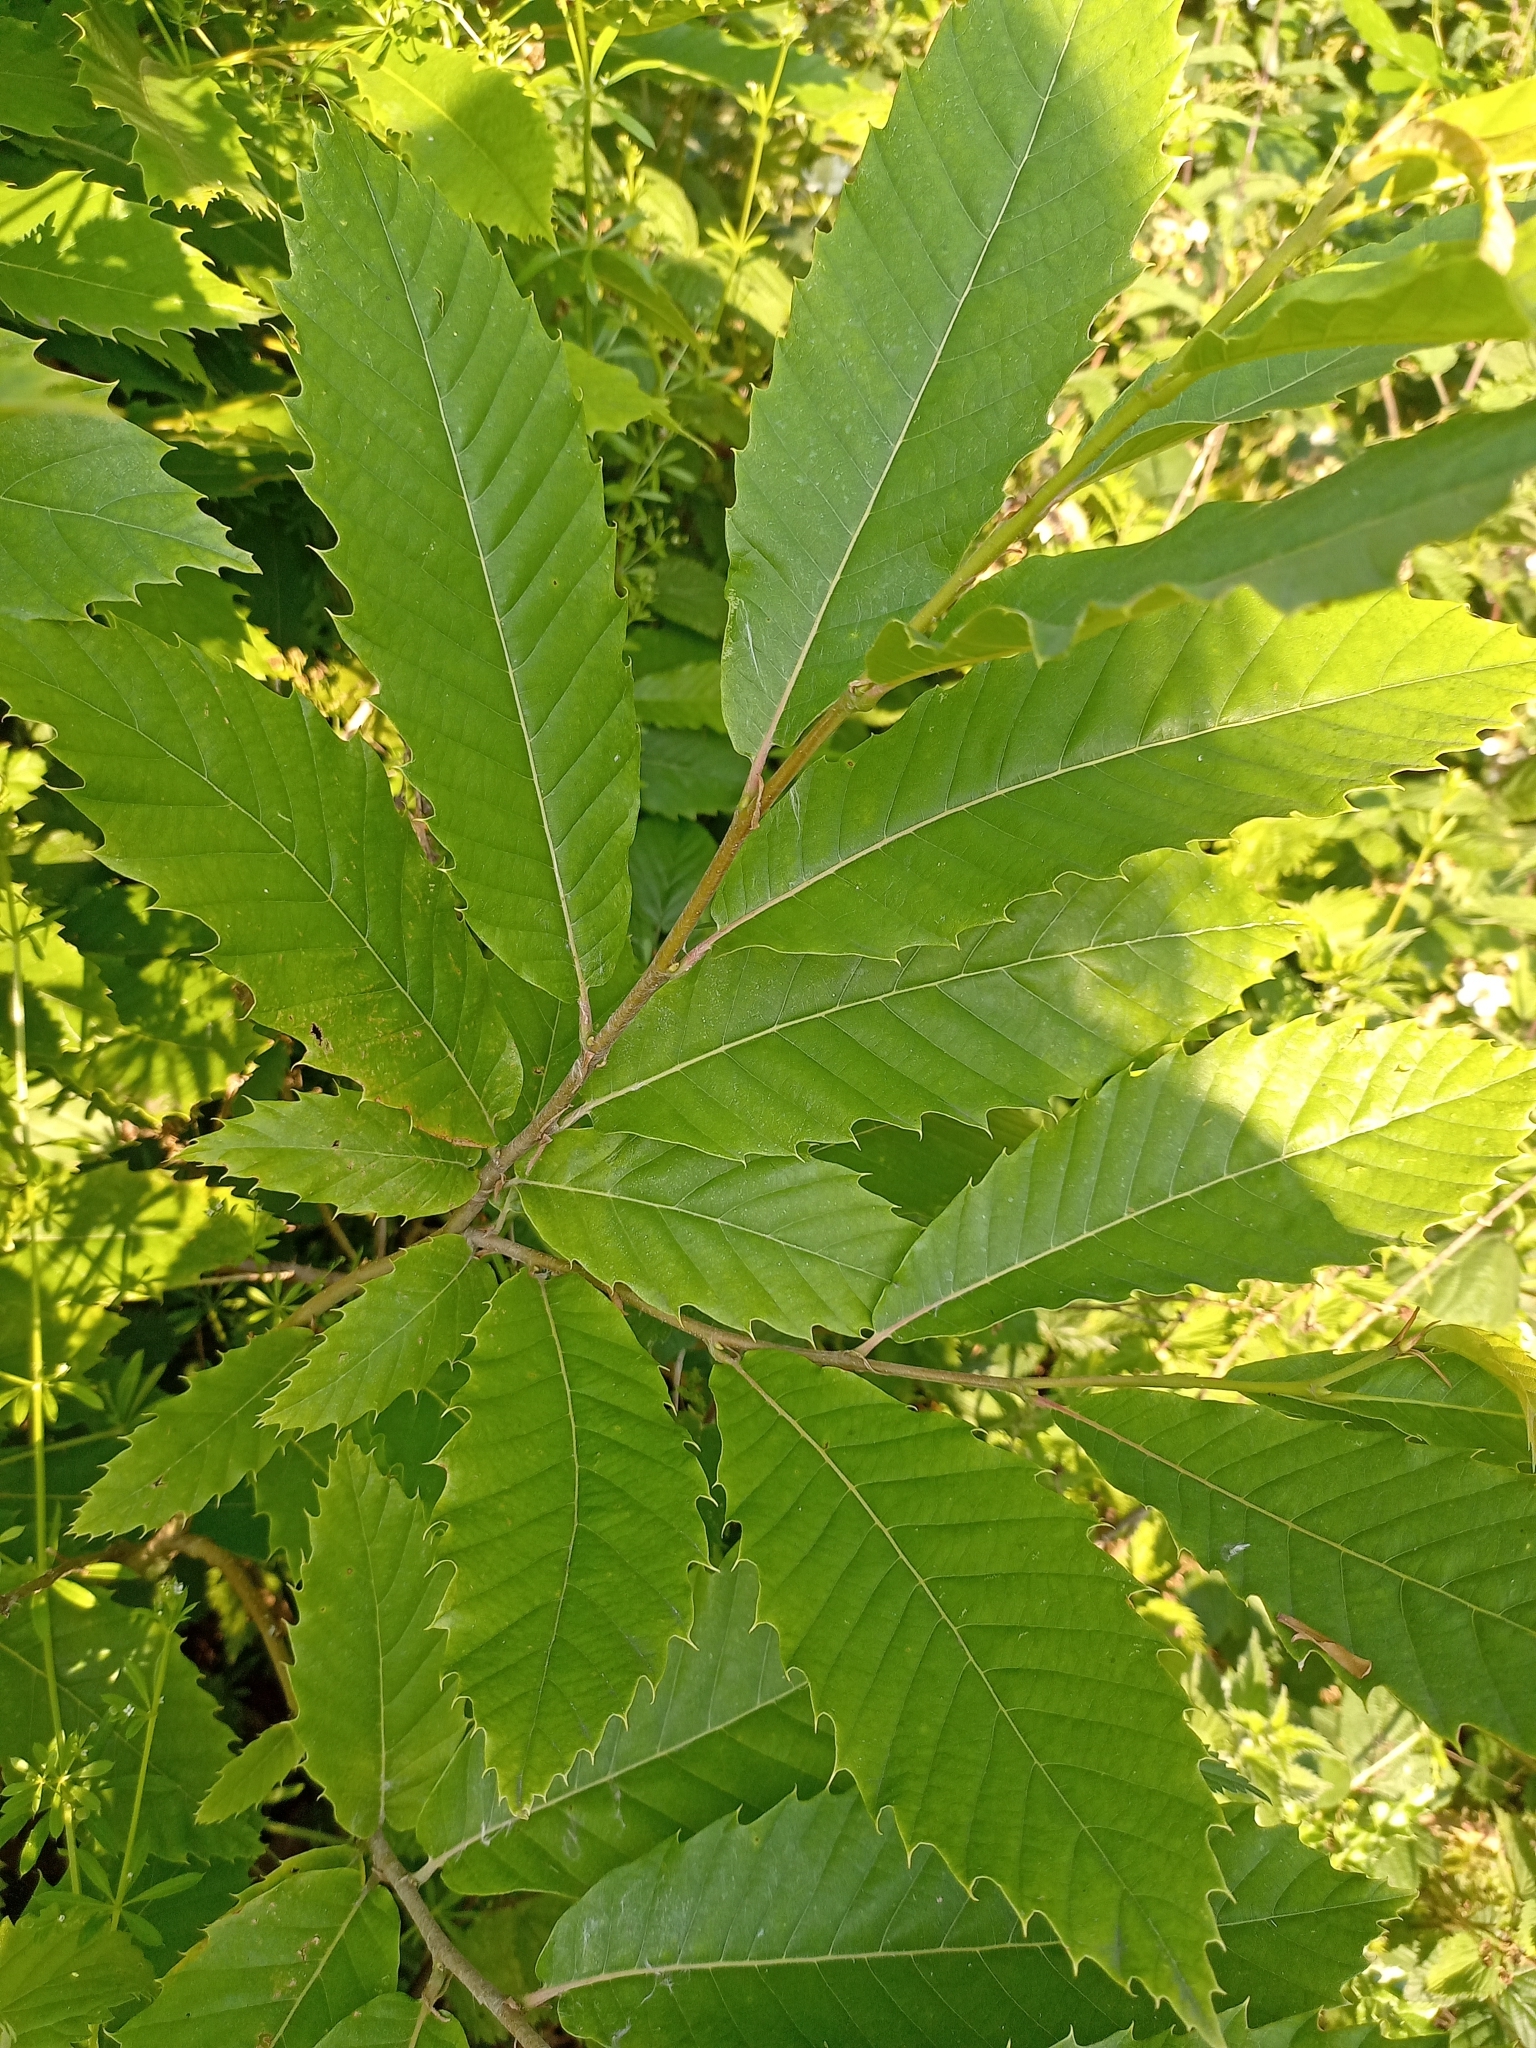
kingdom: Plantae
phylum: Tracheophyta
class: Magnoliopsida
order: Fagales
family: Fagaceae
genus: Castanea
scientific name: Castanea sativa
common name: Sweet chestnut
